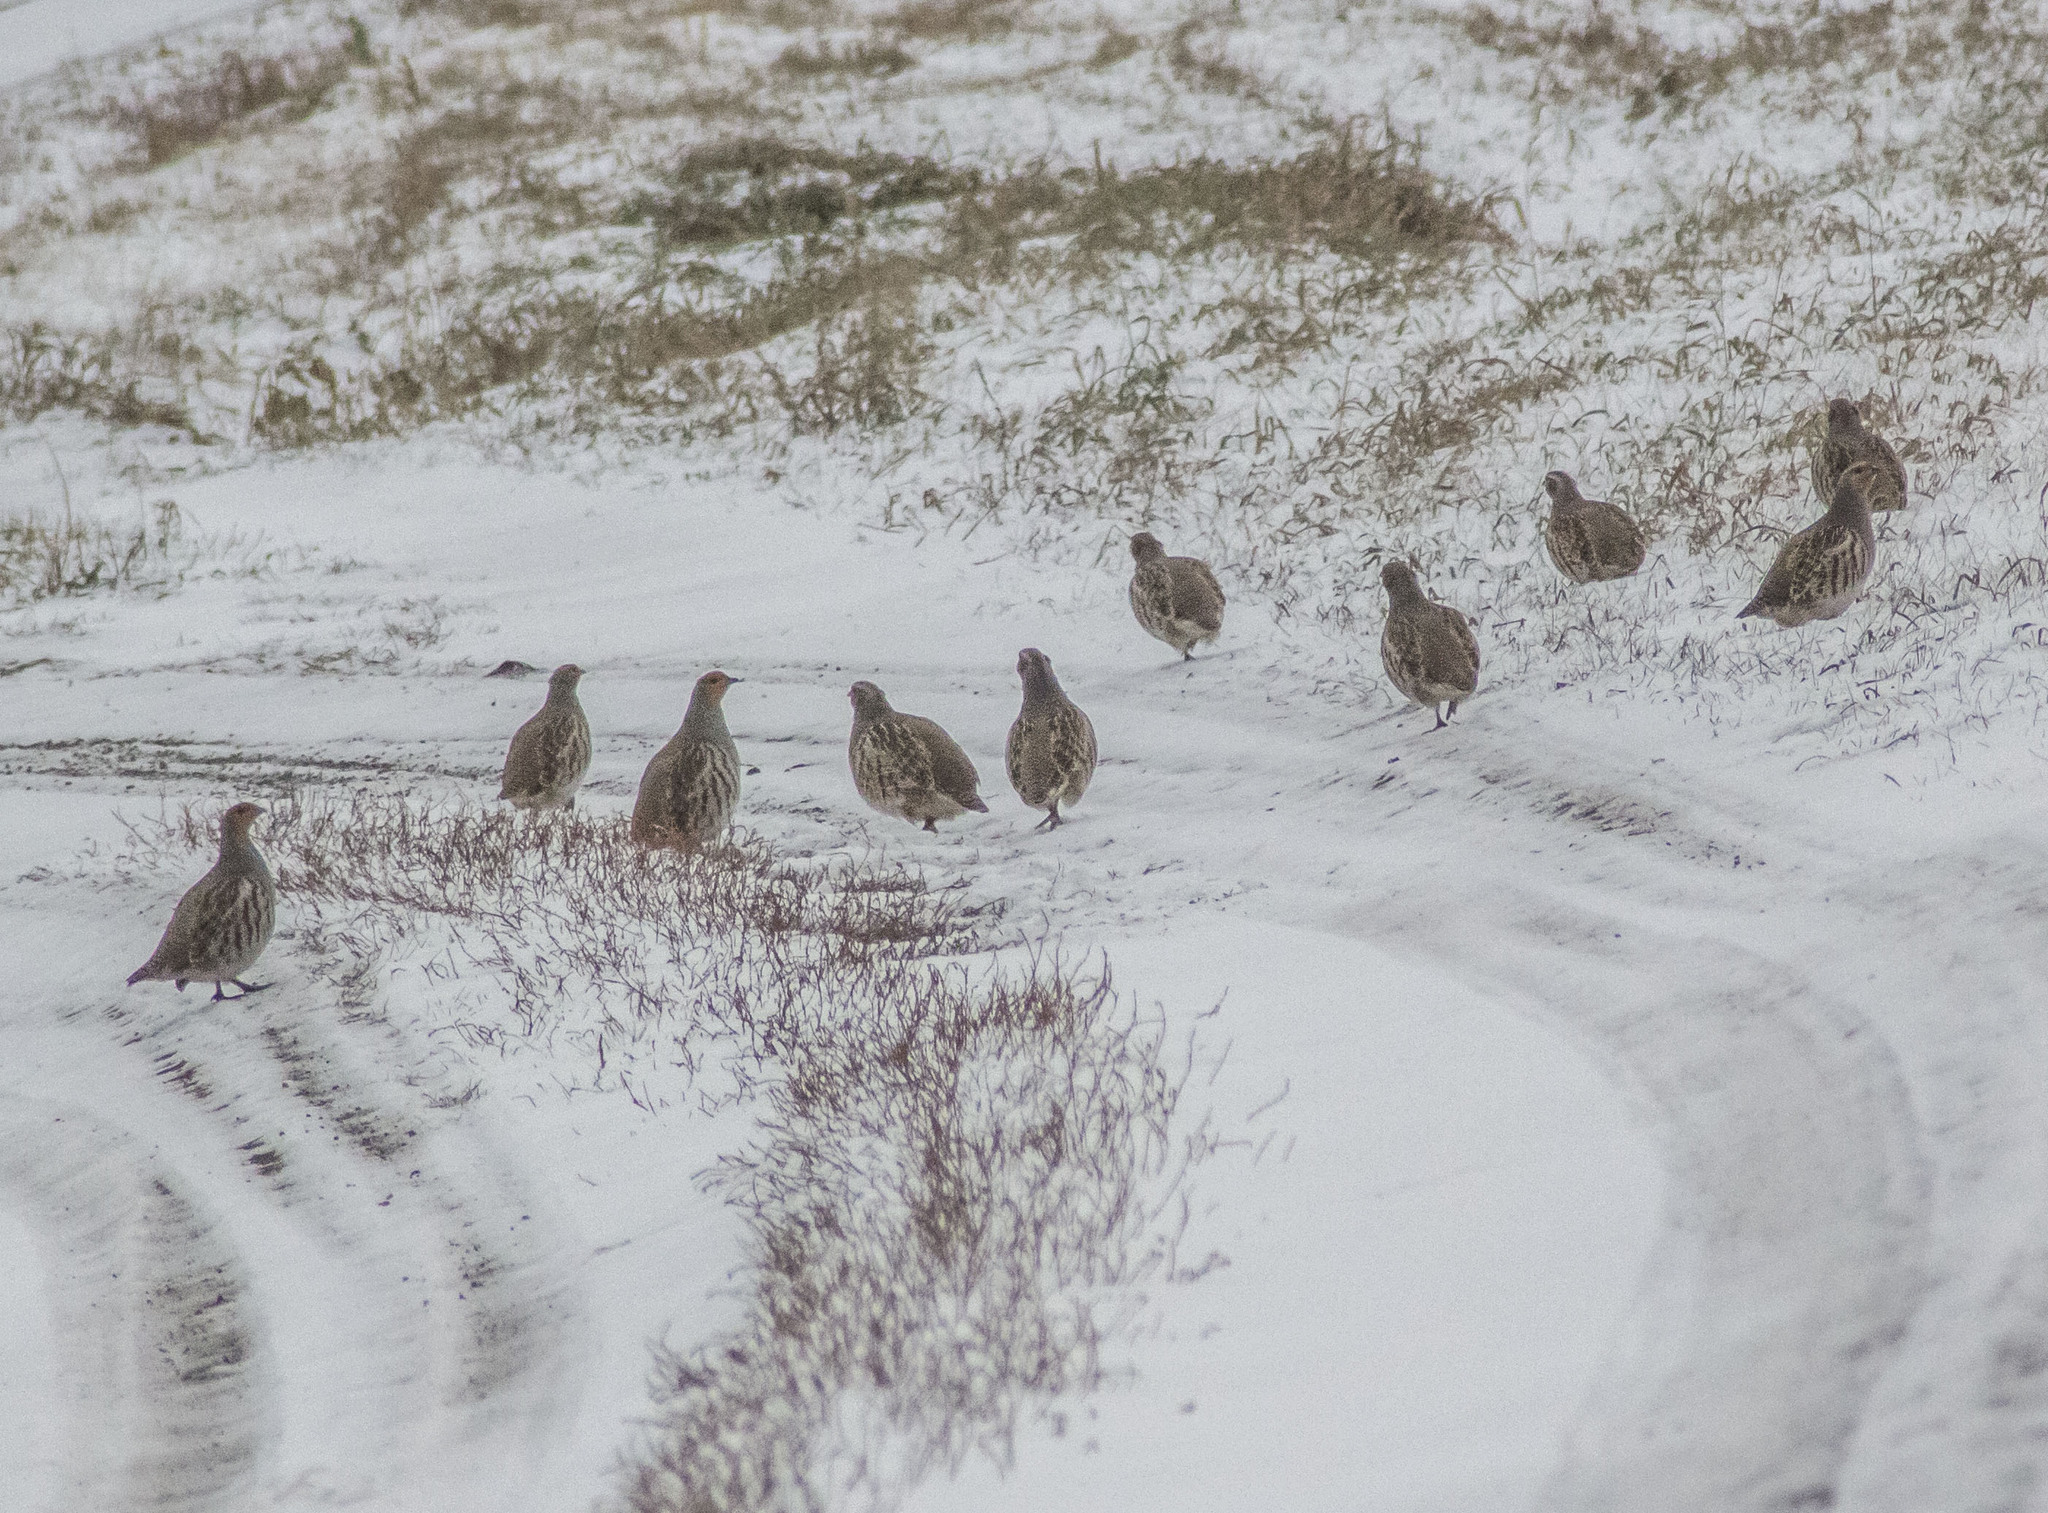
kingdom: Animalia
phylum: Chordata
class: Aves
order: Galliformes
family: Phasianidae
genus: Perdix
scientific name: Perdix perdix
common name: Grey partridge
